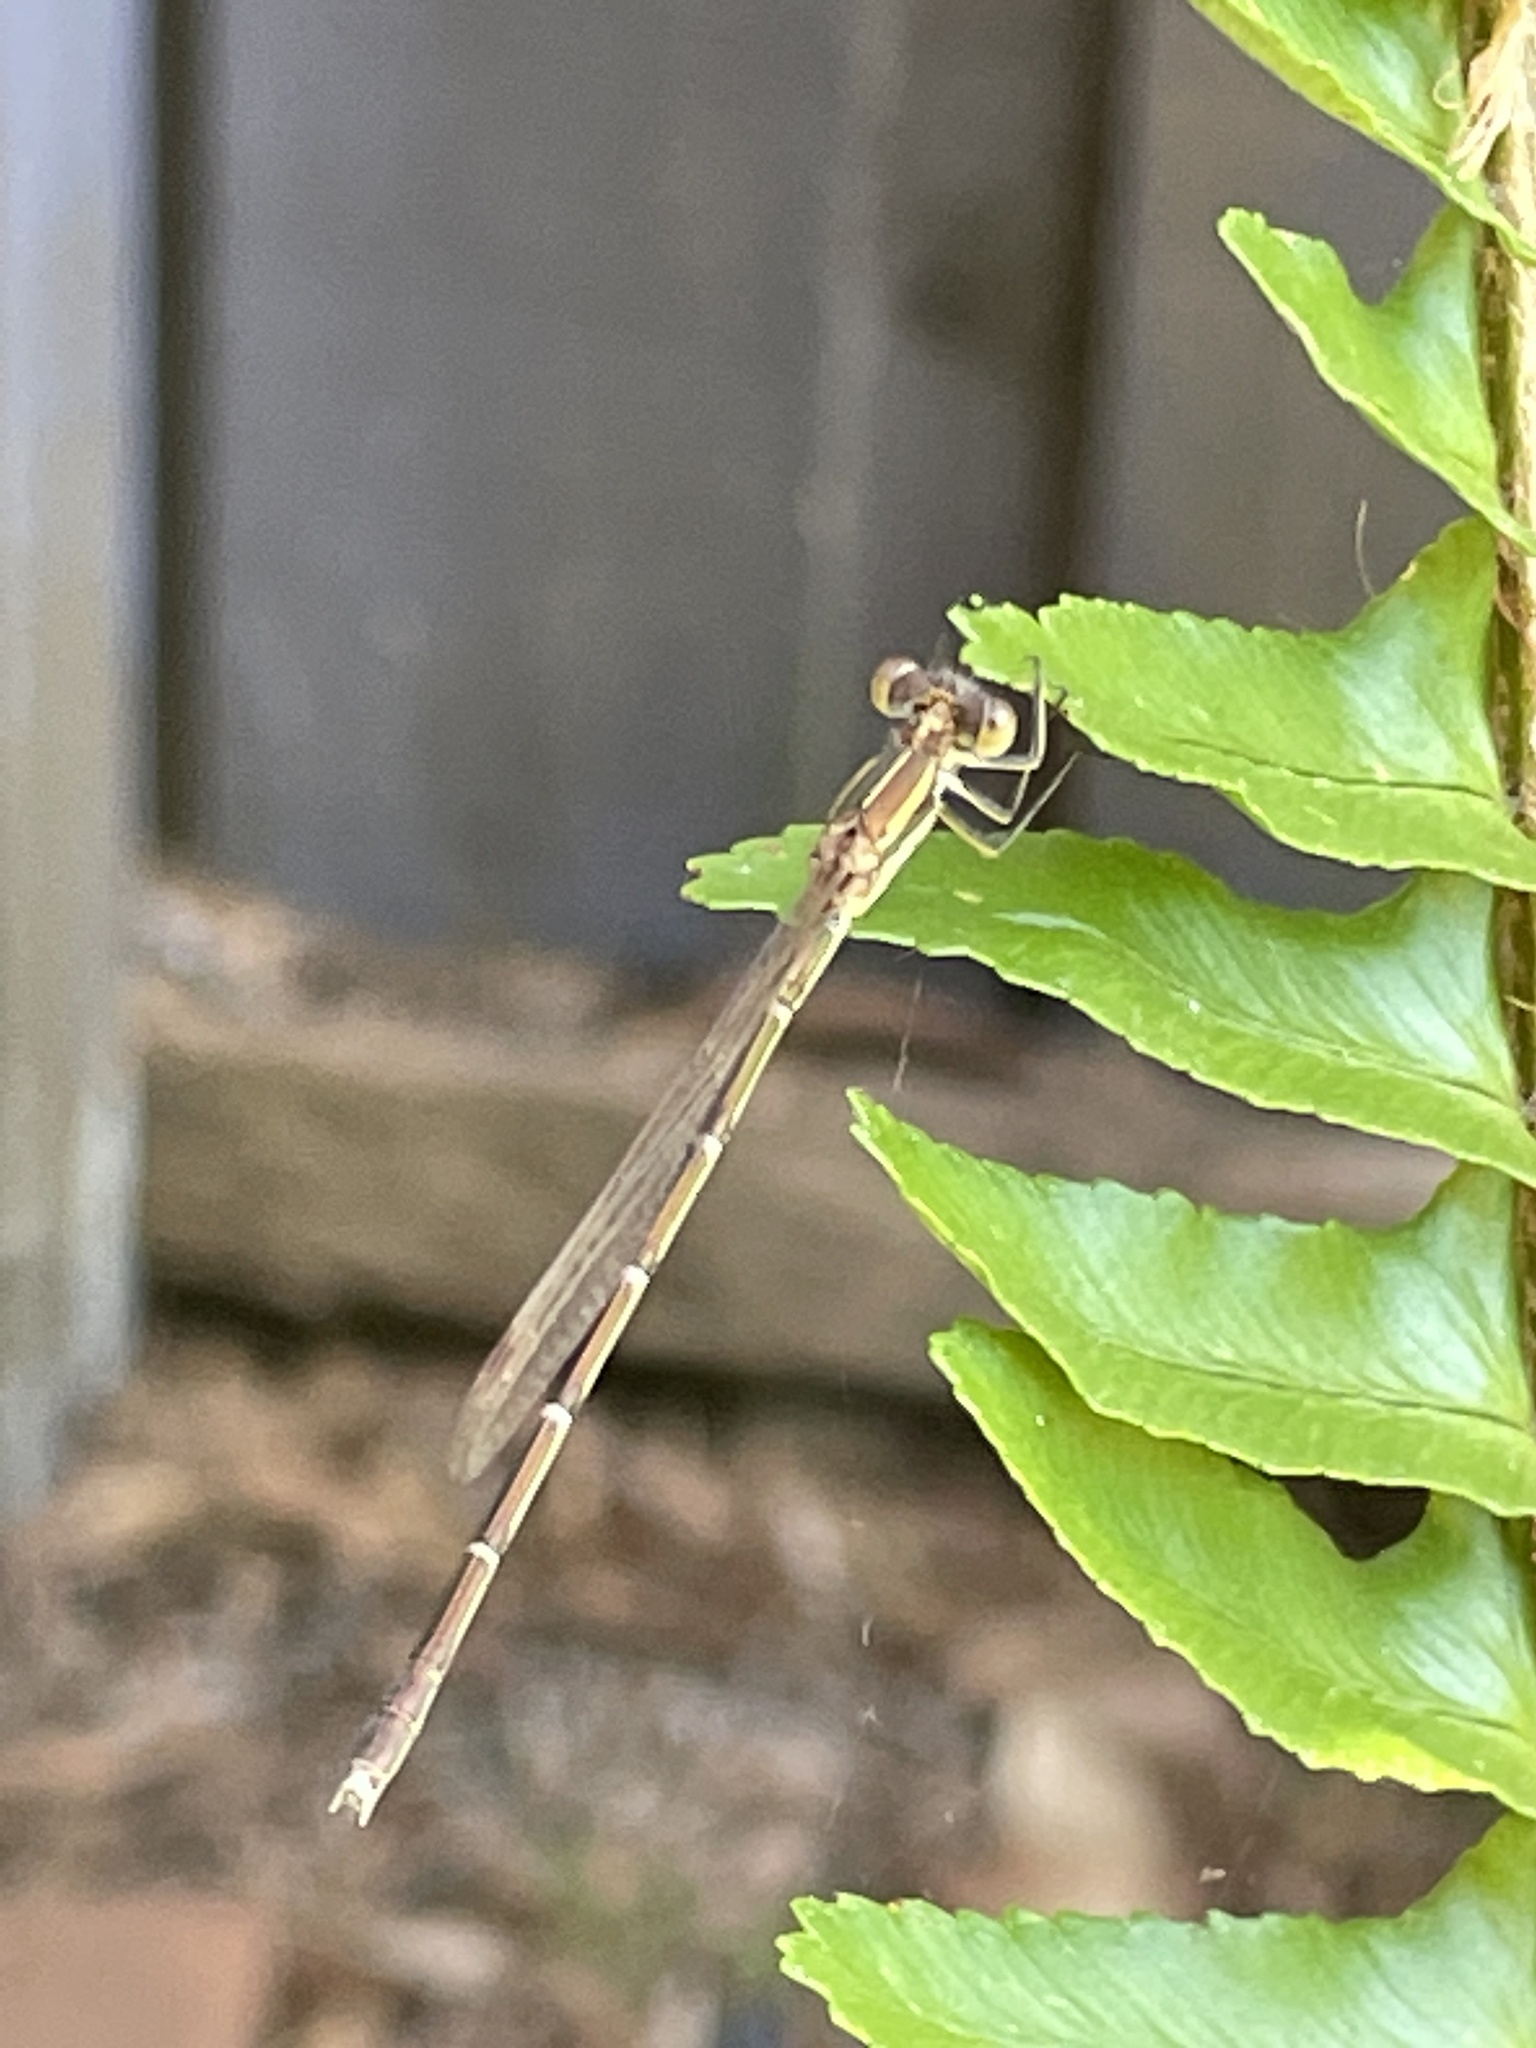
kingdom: Animalia
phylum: Arthropoda
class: Insecta
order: Odonata
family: Lestidae
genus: Austrolestes
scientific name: Austrolestes analis
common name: Slender ringtail
